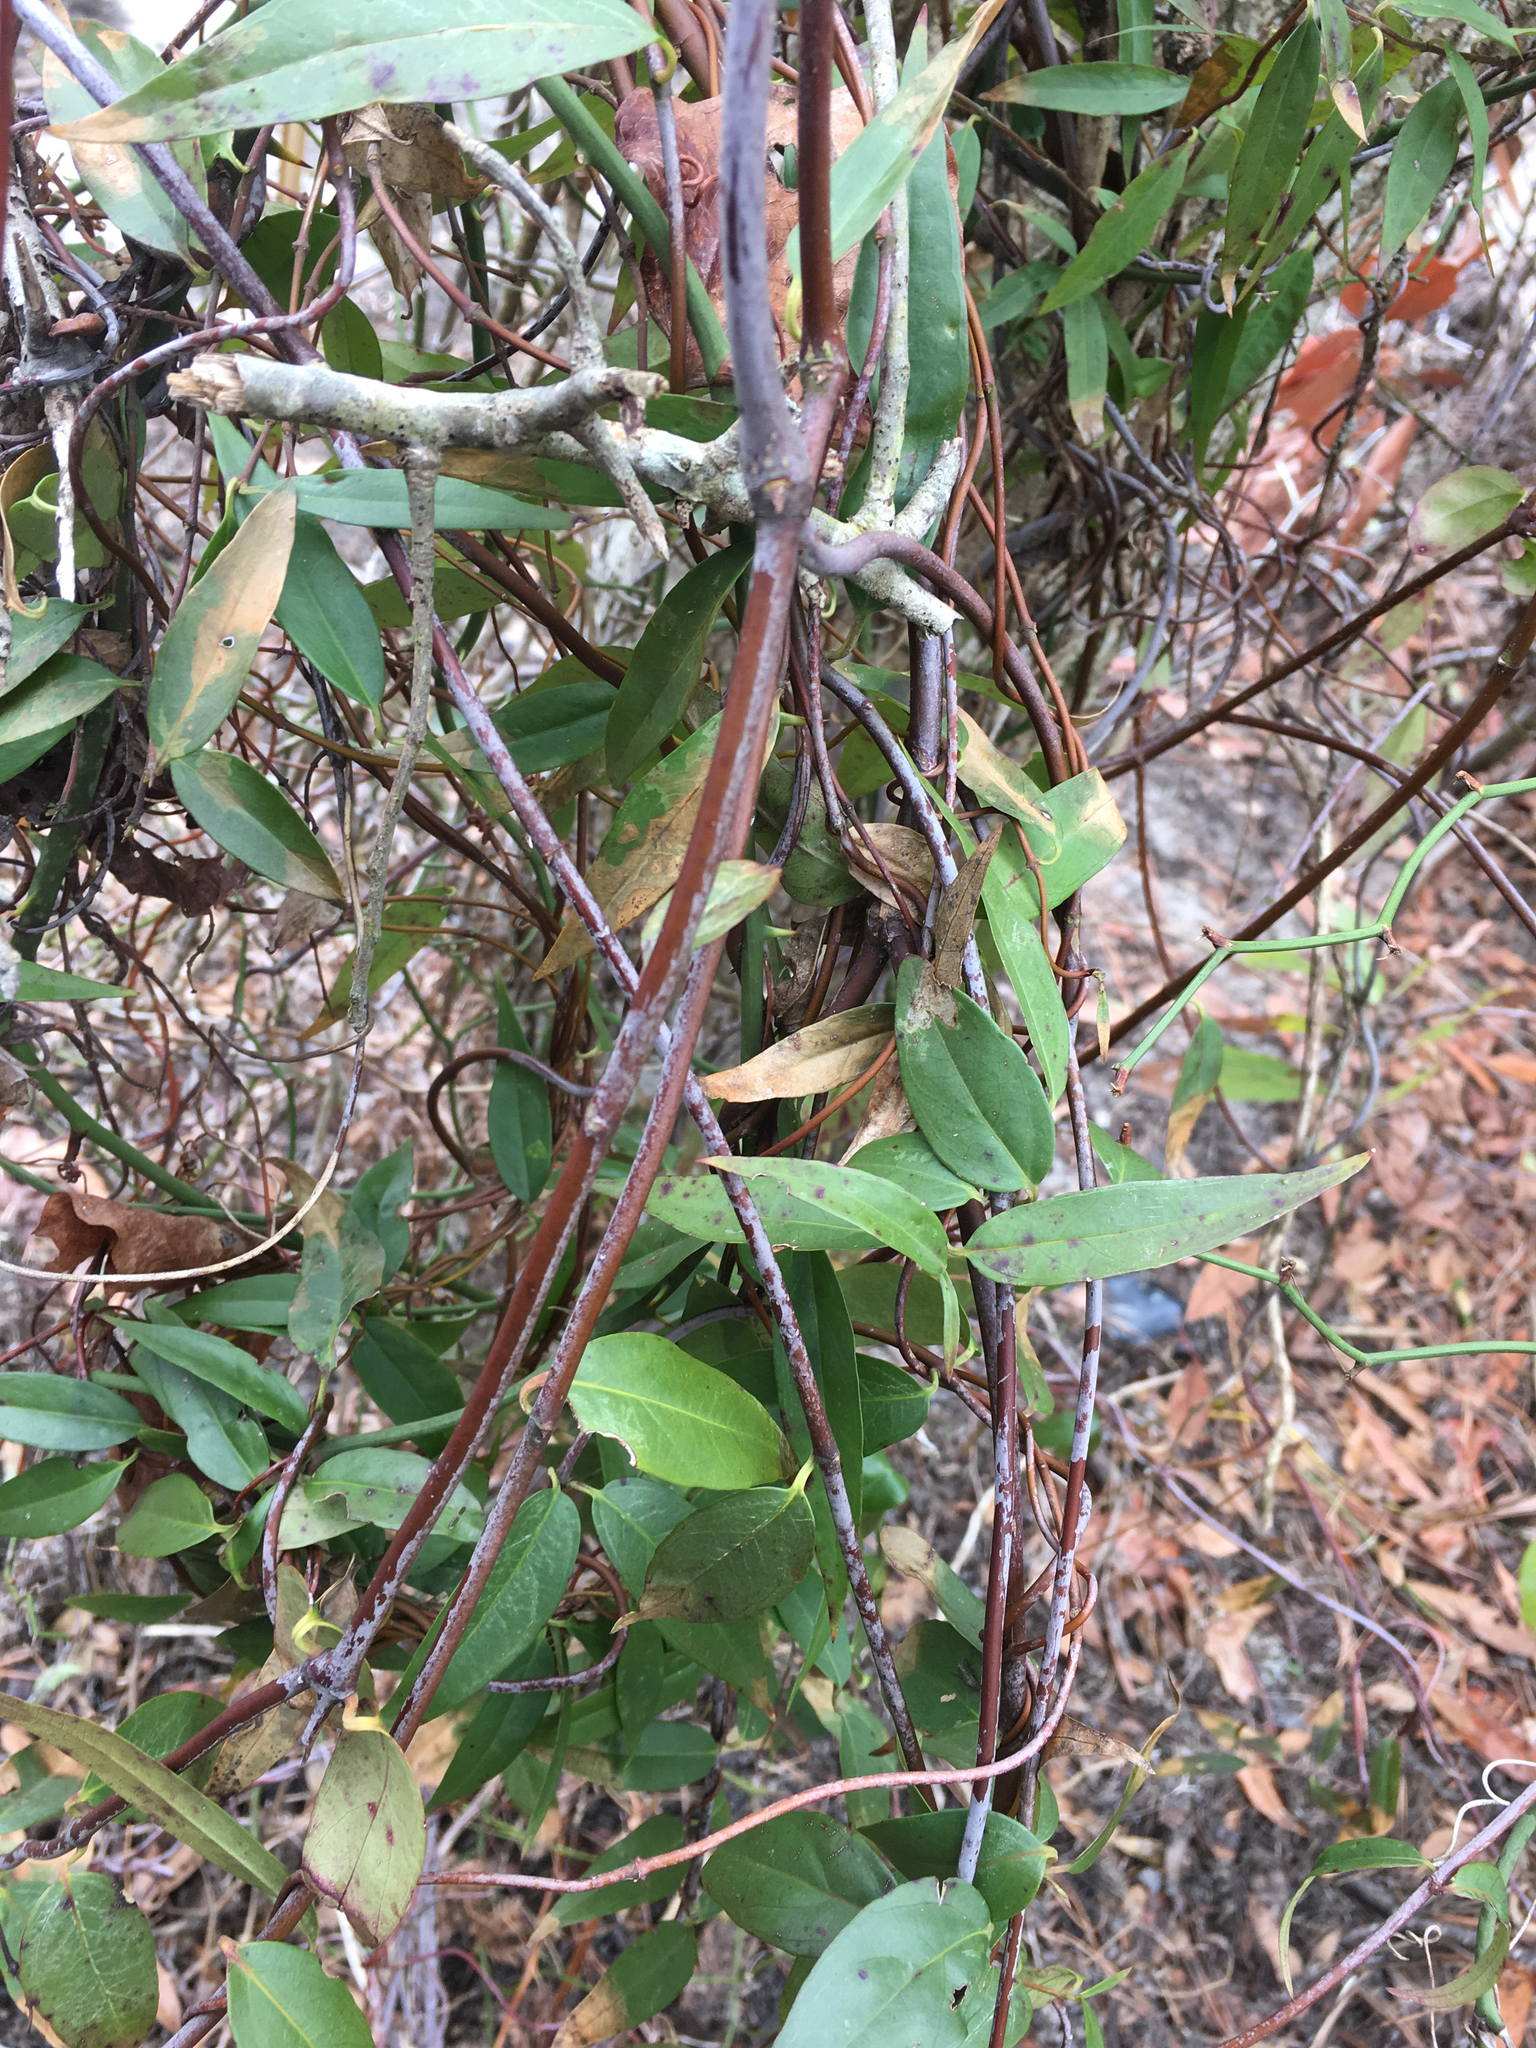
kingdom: Plantae
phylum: Tracheophyta
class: Magnoliopsida
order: Gentianales
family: Gelsemiaceae
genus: Gelsemium
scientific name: Gelsemium sempervirens
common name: Carolina-jasmine
